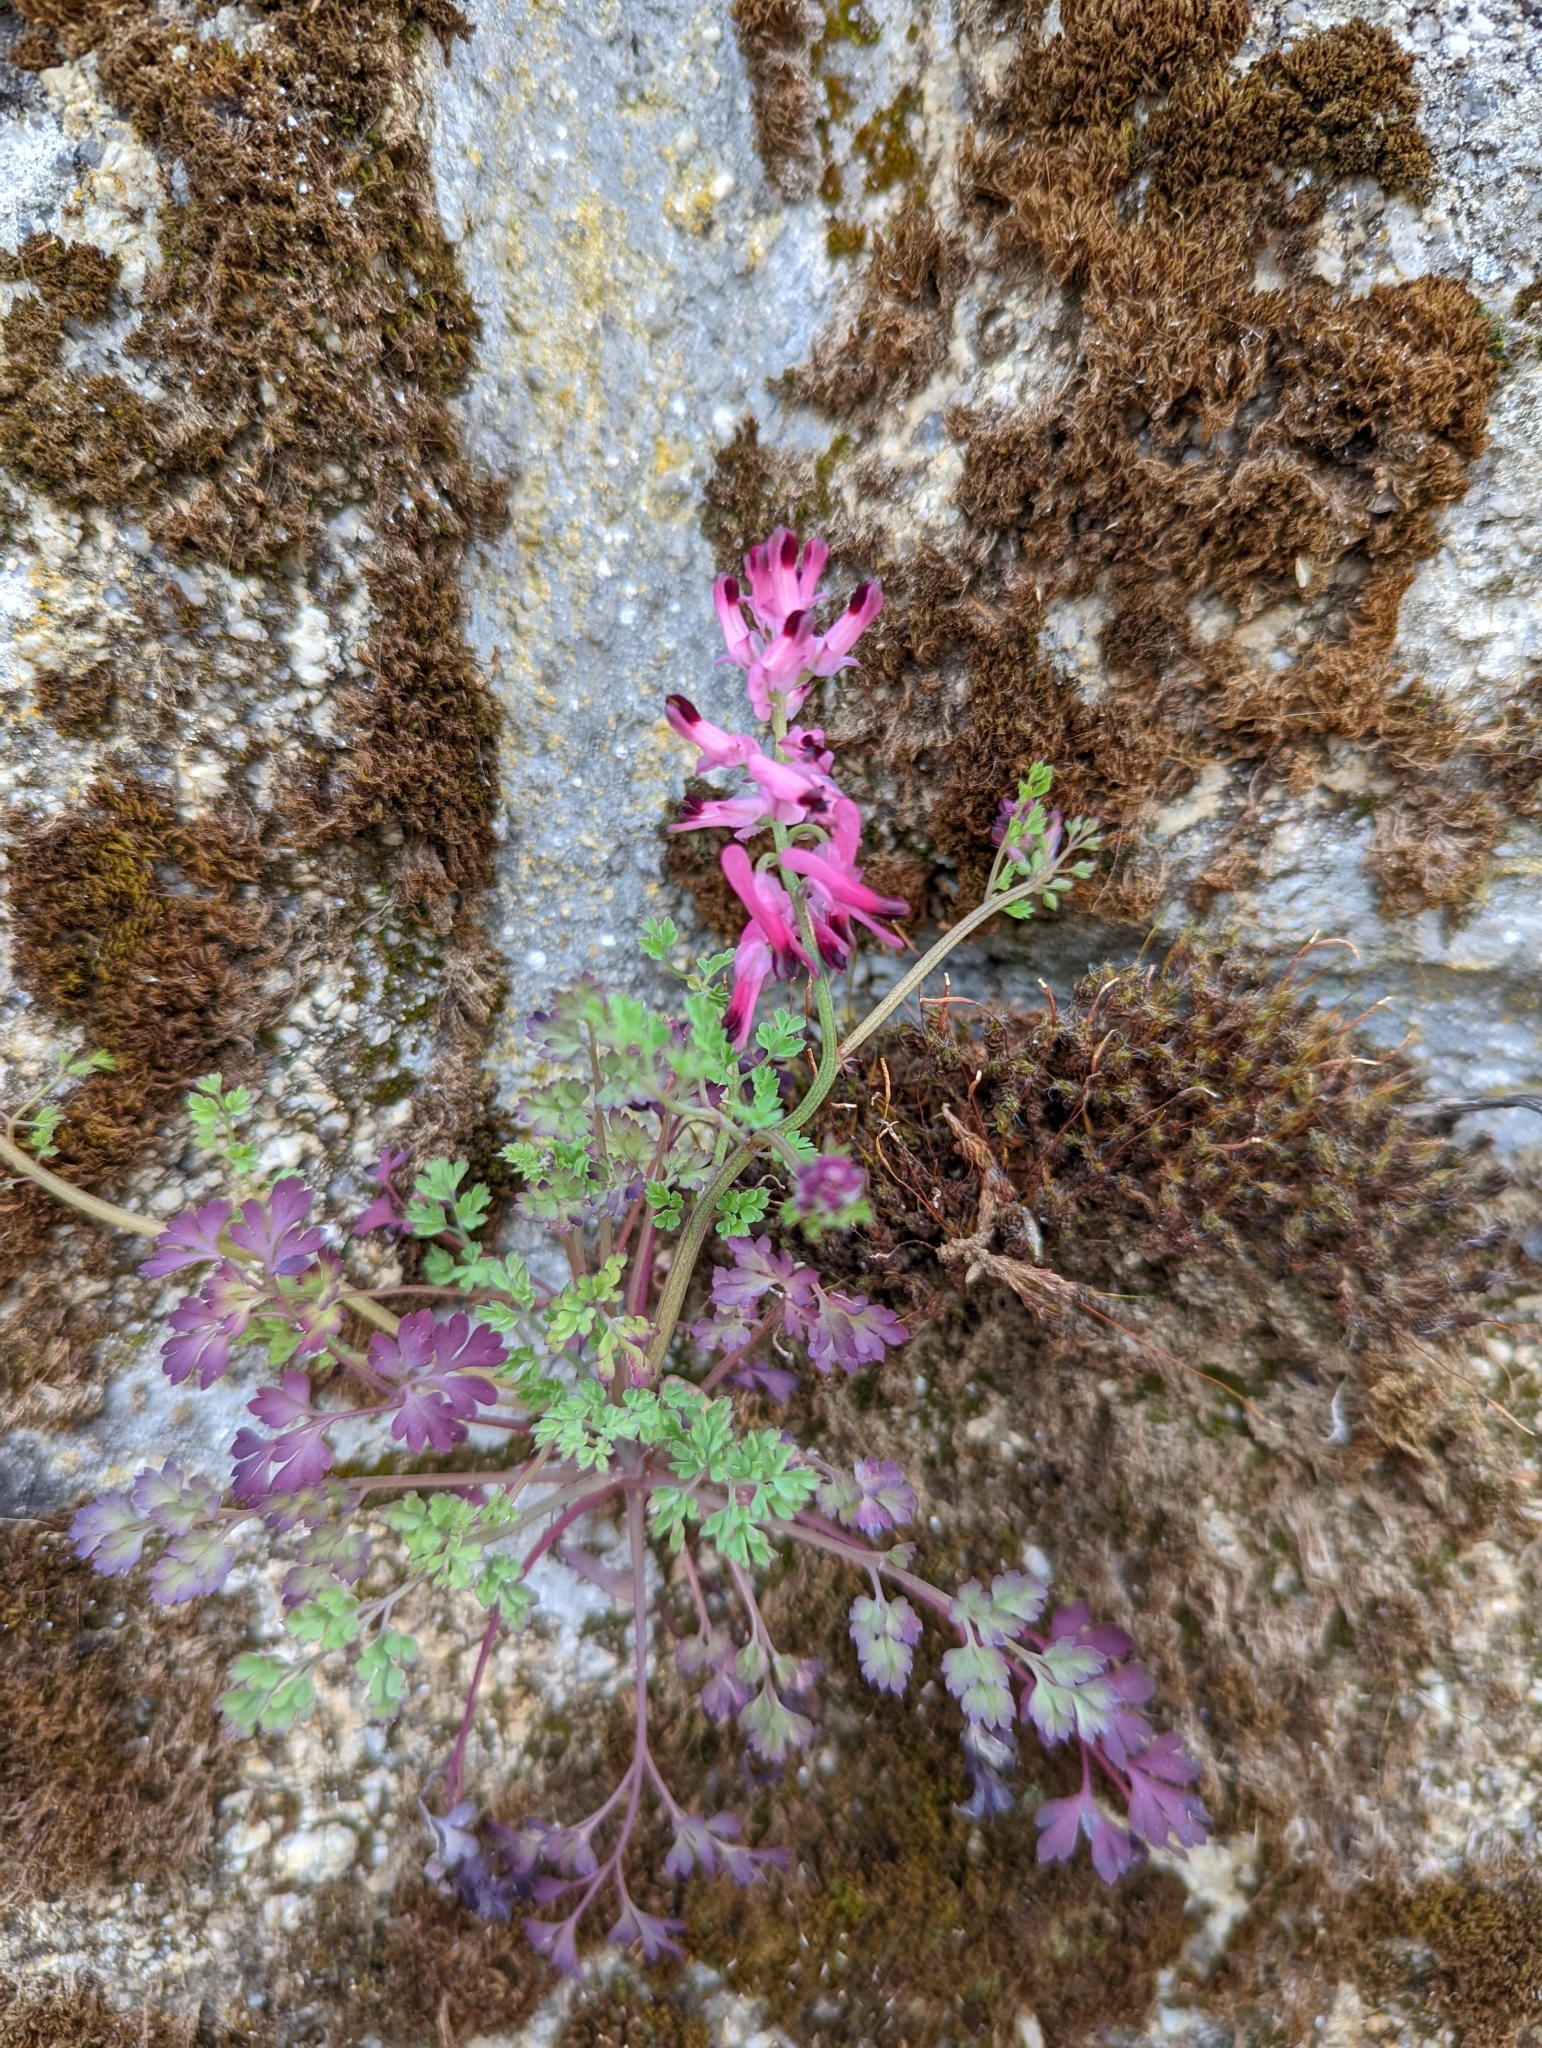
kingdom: Plantae
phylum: Tracheophyta
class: Magnoliopsida
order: Ranunculales
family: Papaveraceae
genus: Fumaria
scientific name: Fumaria muralis
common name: Common ramping-fumitory
